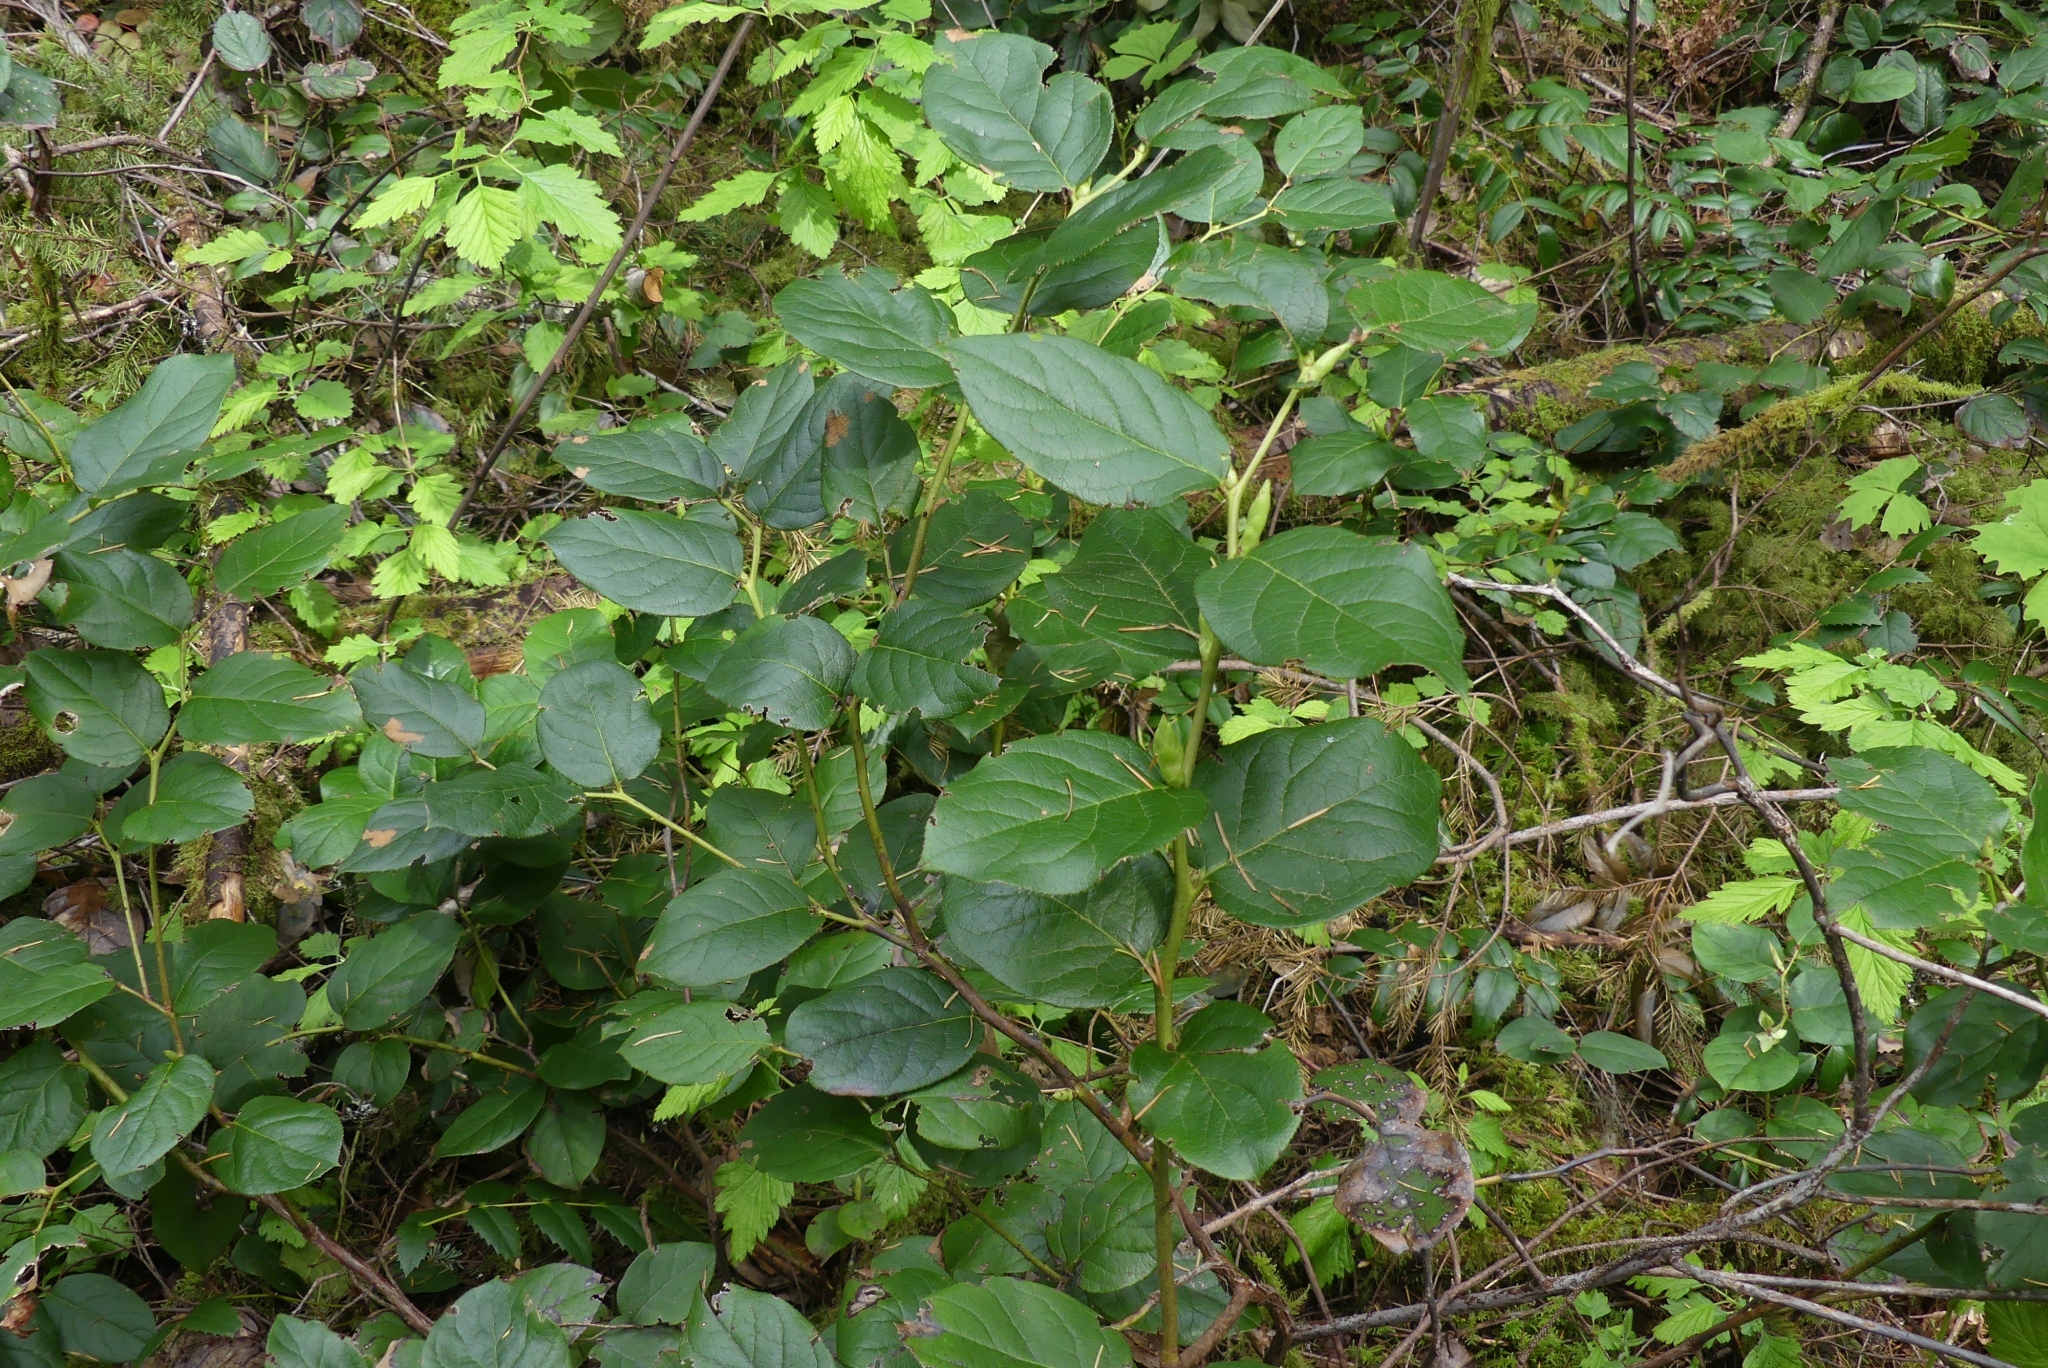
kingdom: Plantae
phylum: Tracheophyta
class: Magnoliopsida
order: Ericales
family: Ericaceae
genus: Gaultheria
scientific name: Gaultheria shallon
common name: Shallon
